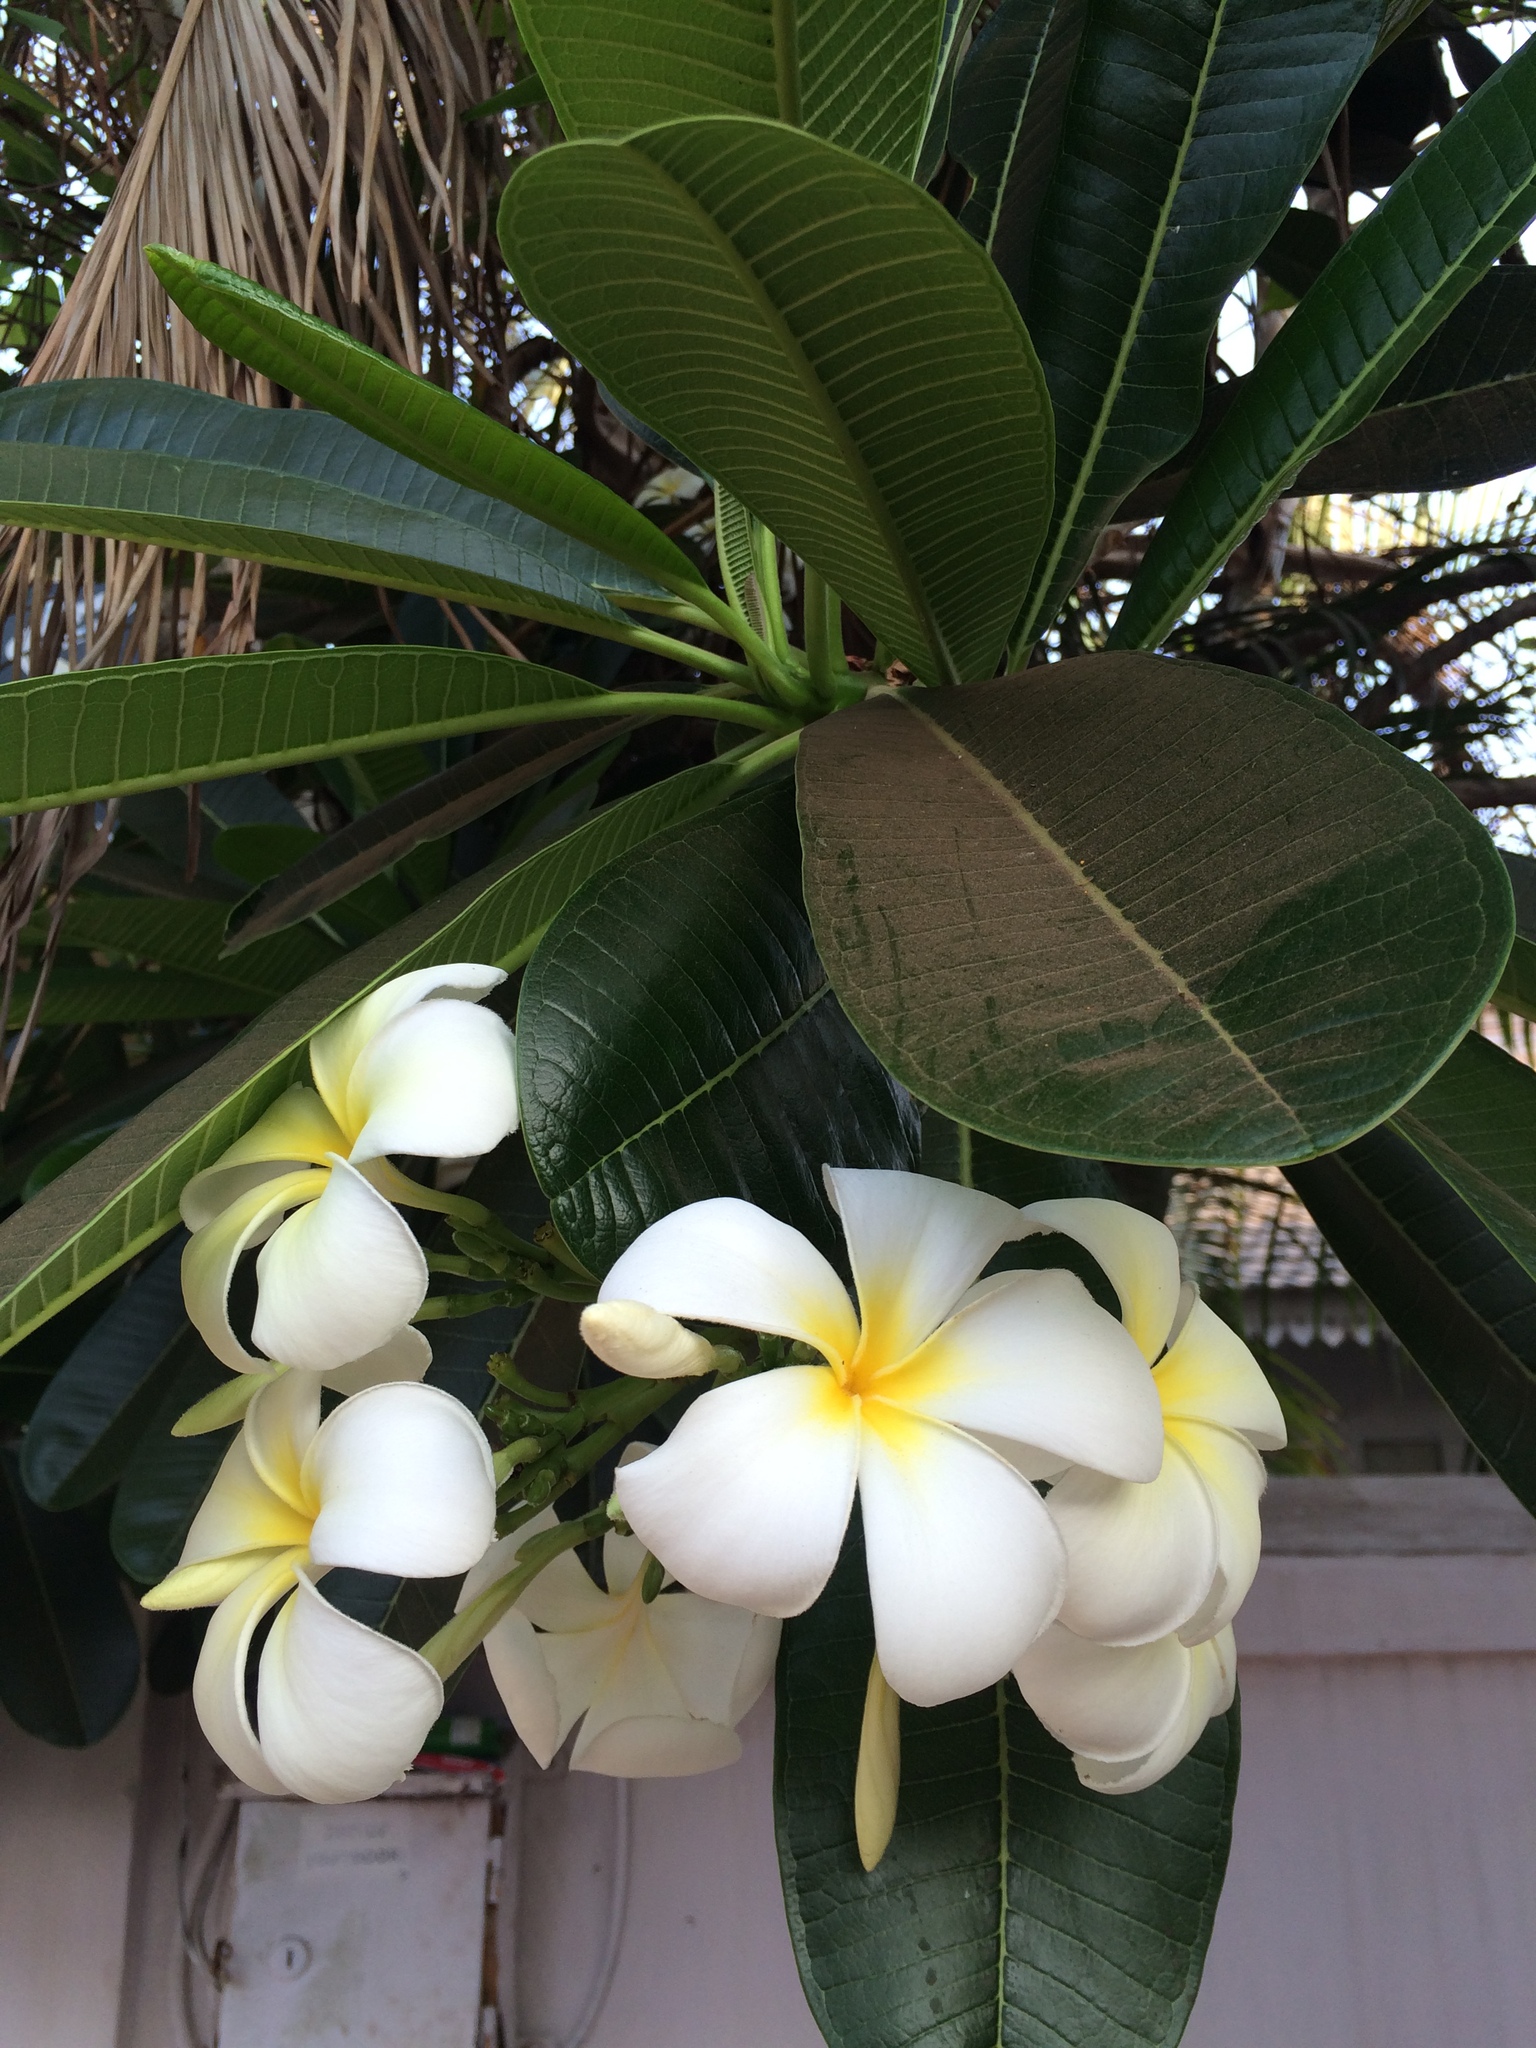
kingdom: Plantae
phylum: Tracheophyta
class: Magnoliopsida
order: Gentianales
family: Apocynaceae
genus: Plumeria
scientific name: Plumeria obtusa
